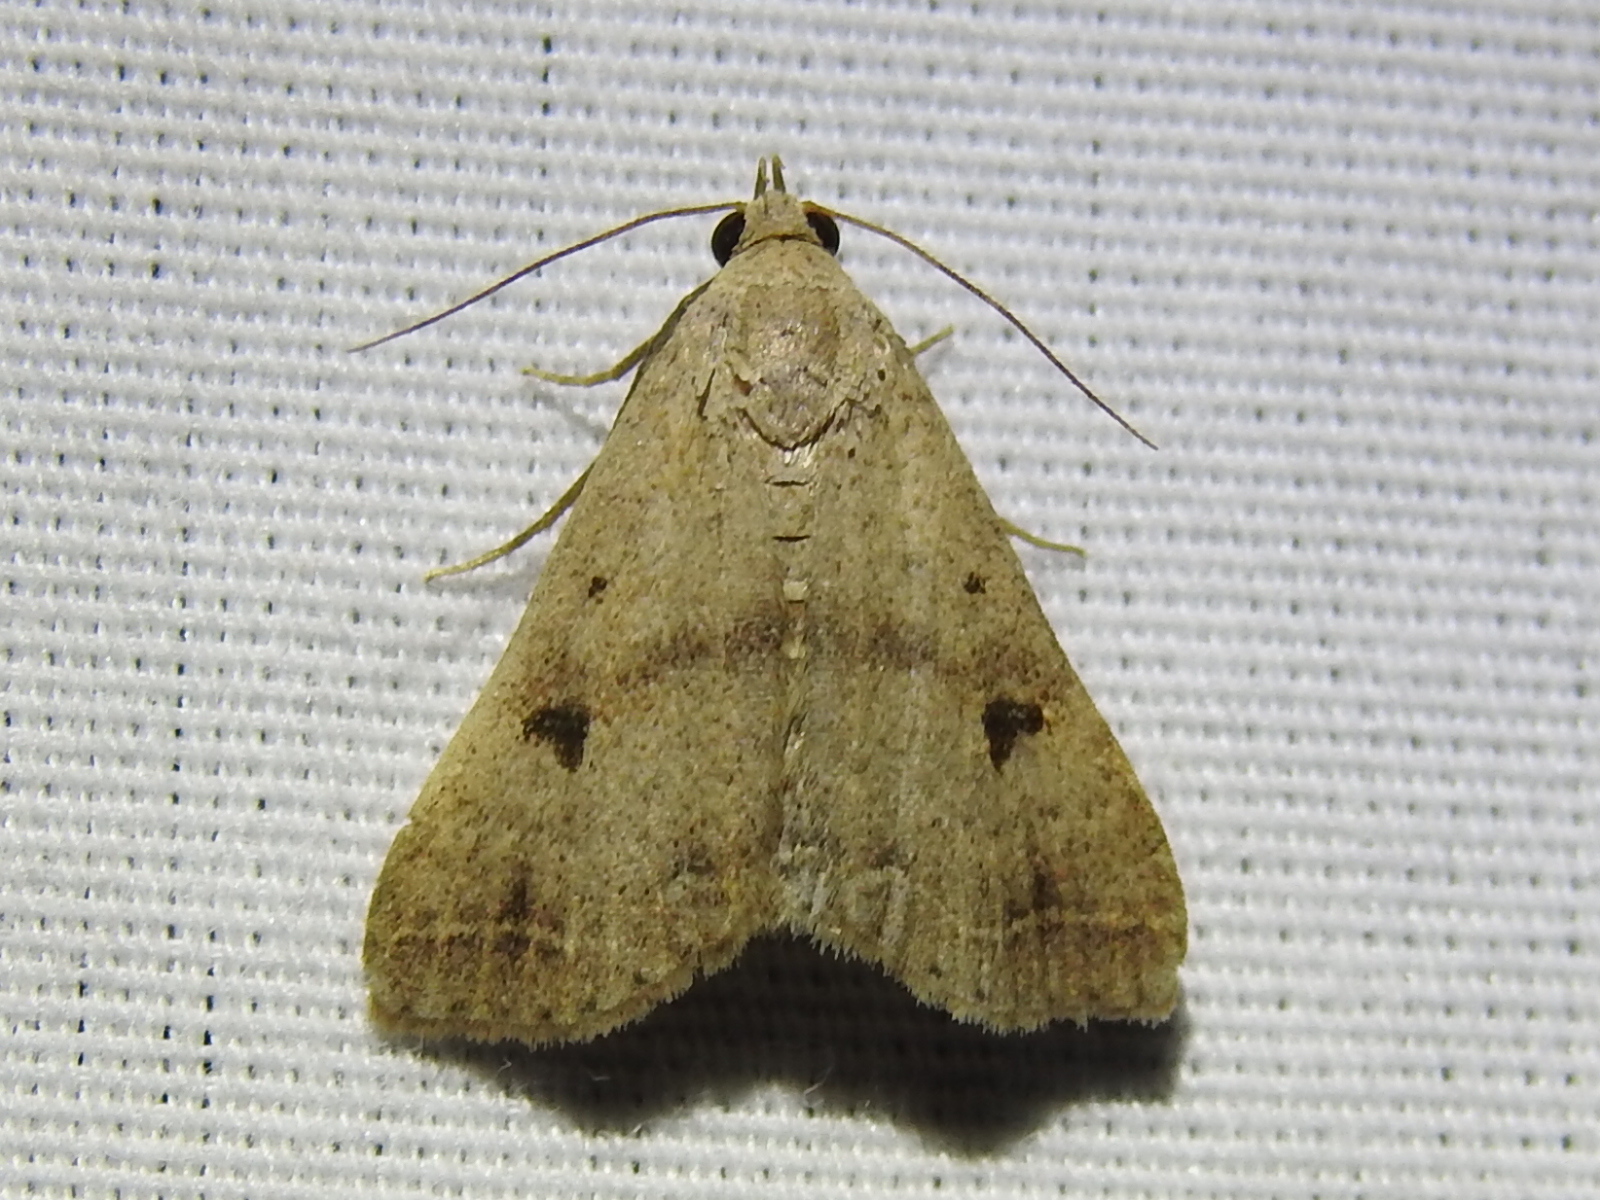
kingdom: Animalia
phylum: Arthropoda
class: Insecta
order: Lepidoptera
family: Erebidae
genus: Bleptina
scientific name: Bleptina caradrinalis
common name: Bent-winged owlet
